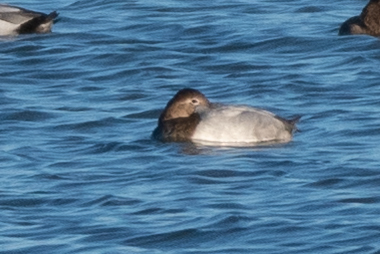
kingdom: Animalia
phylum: Chordata
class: Aves
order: Anseriformes
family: Anatidae
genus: Aythya
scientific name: Aythya valisineria
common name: Canvasback
